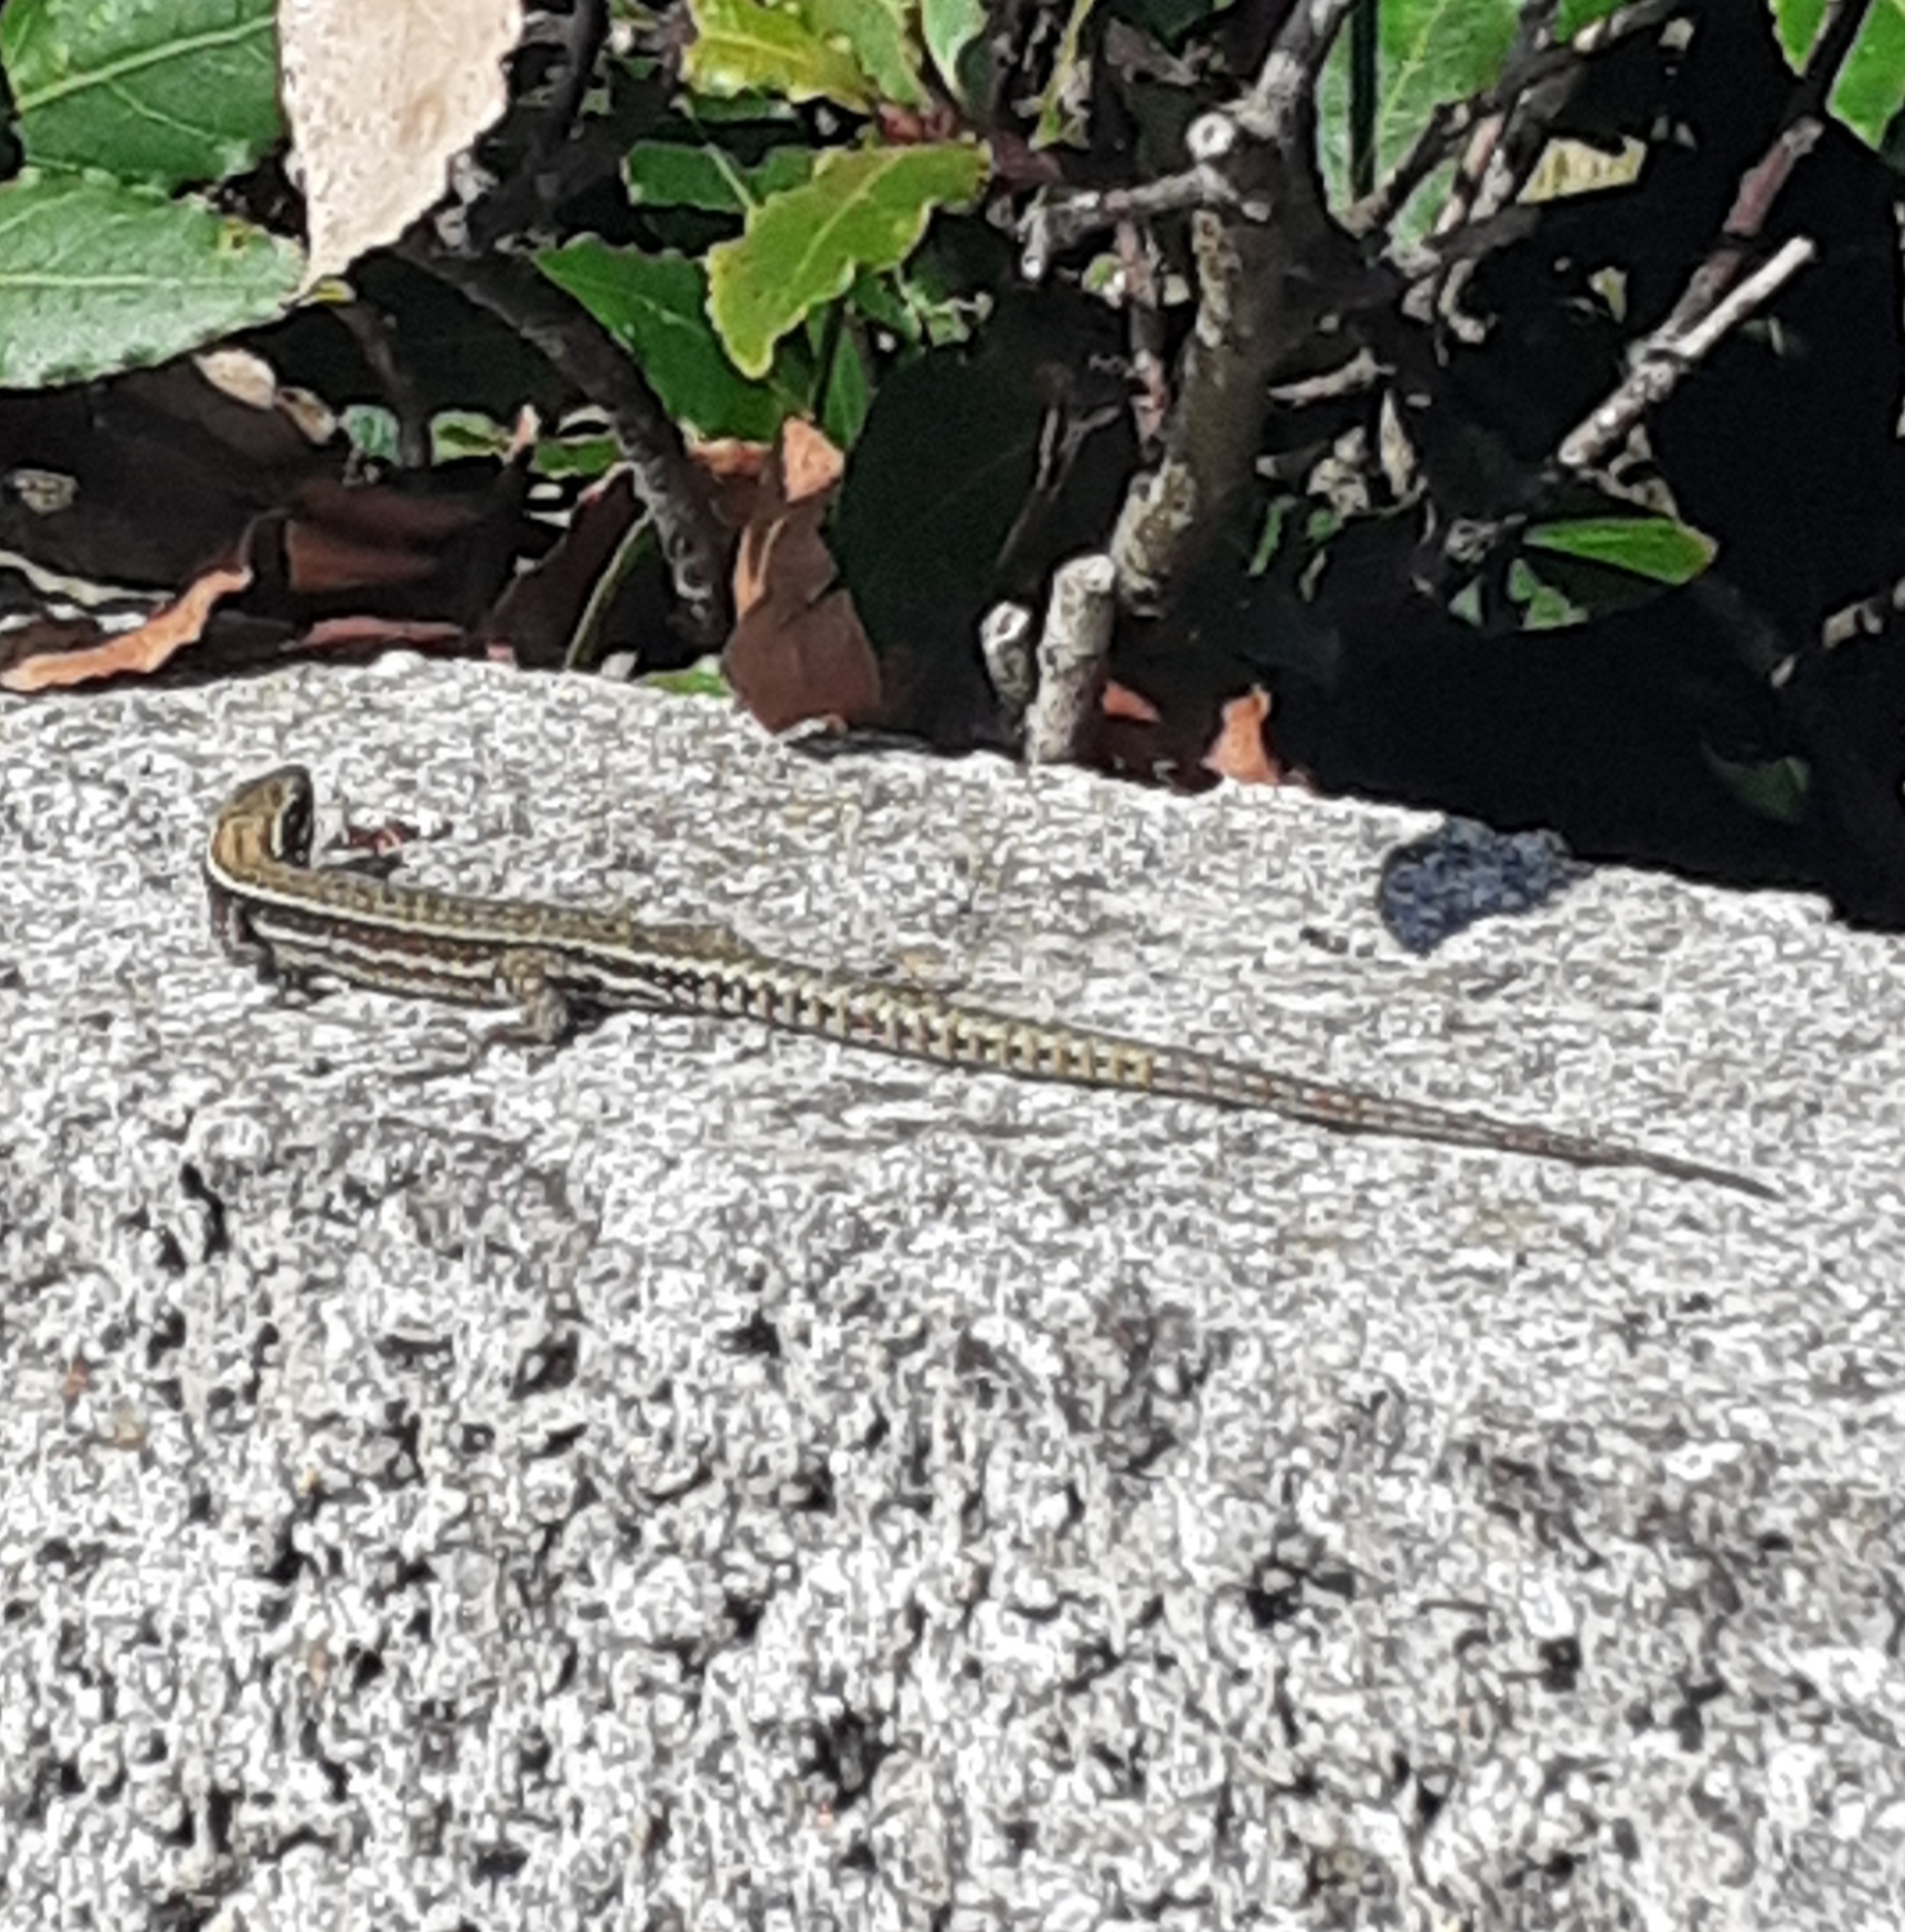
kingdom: Animalia
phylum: Chordata
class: Squamata
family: Lacertidae
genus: Podarcis
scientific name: Podarcis muralis
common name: Common wall lizard
